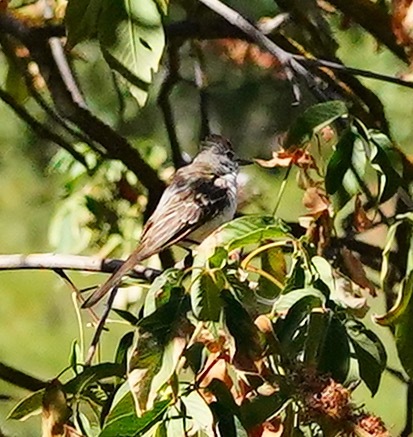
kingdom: Animalia
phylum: Chordata
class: Aves
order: Passeriformes
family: Tyrannidae
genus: Myiarchus
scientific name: Myiarchus cinerascens
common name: Ash-throated flycatcher
